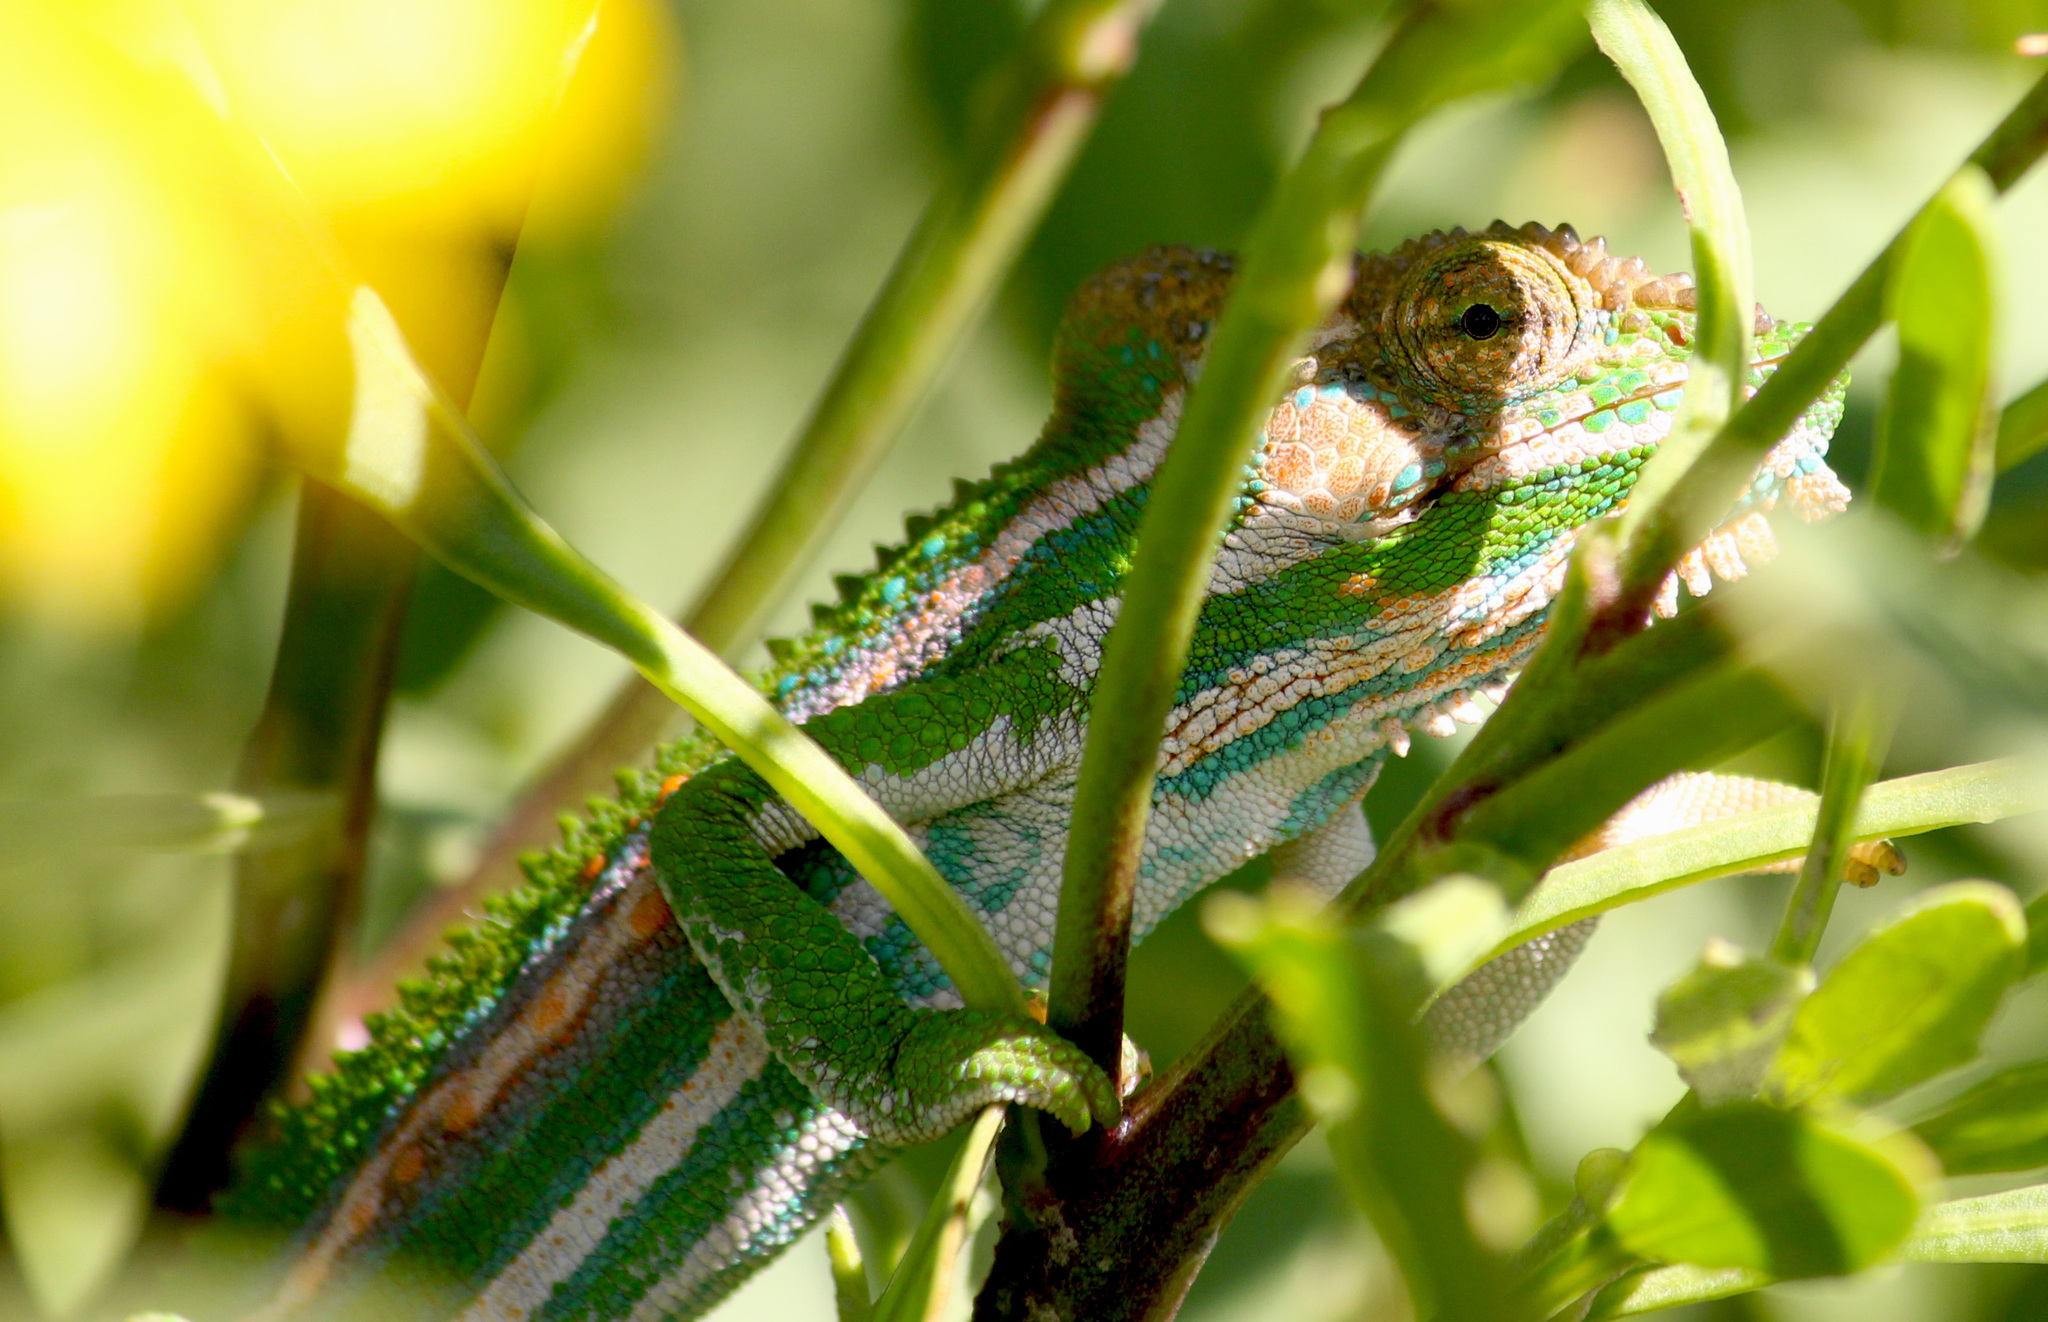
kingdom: Animalia
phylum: Chordata
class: Squamata
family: Chamaeleonidae
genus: Bradypodion
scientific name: Bradypodion pumilum
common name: Cape dwarf chameleon
